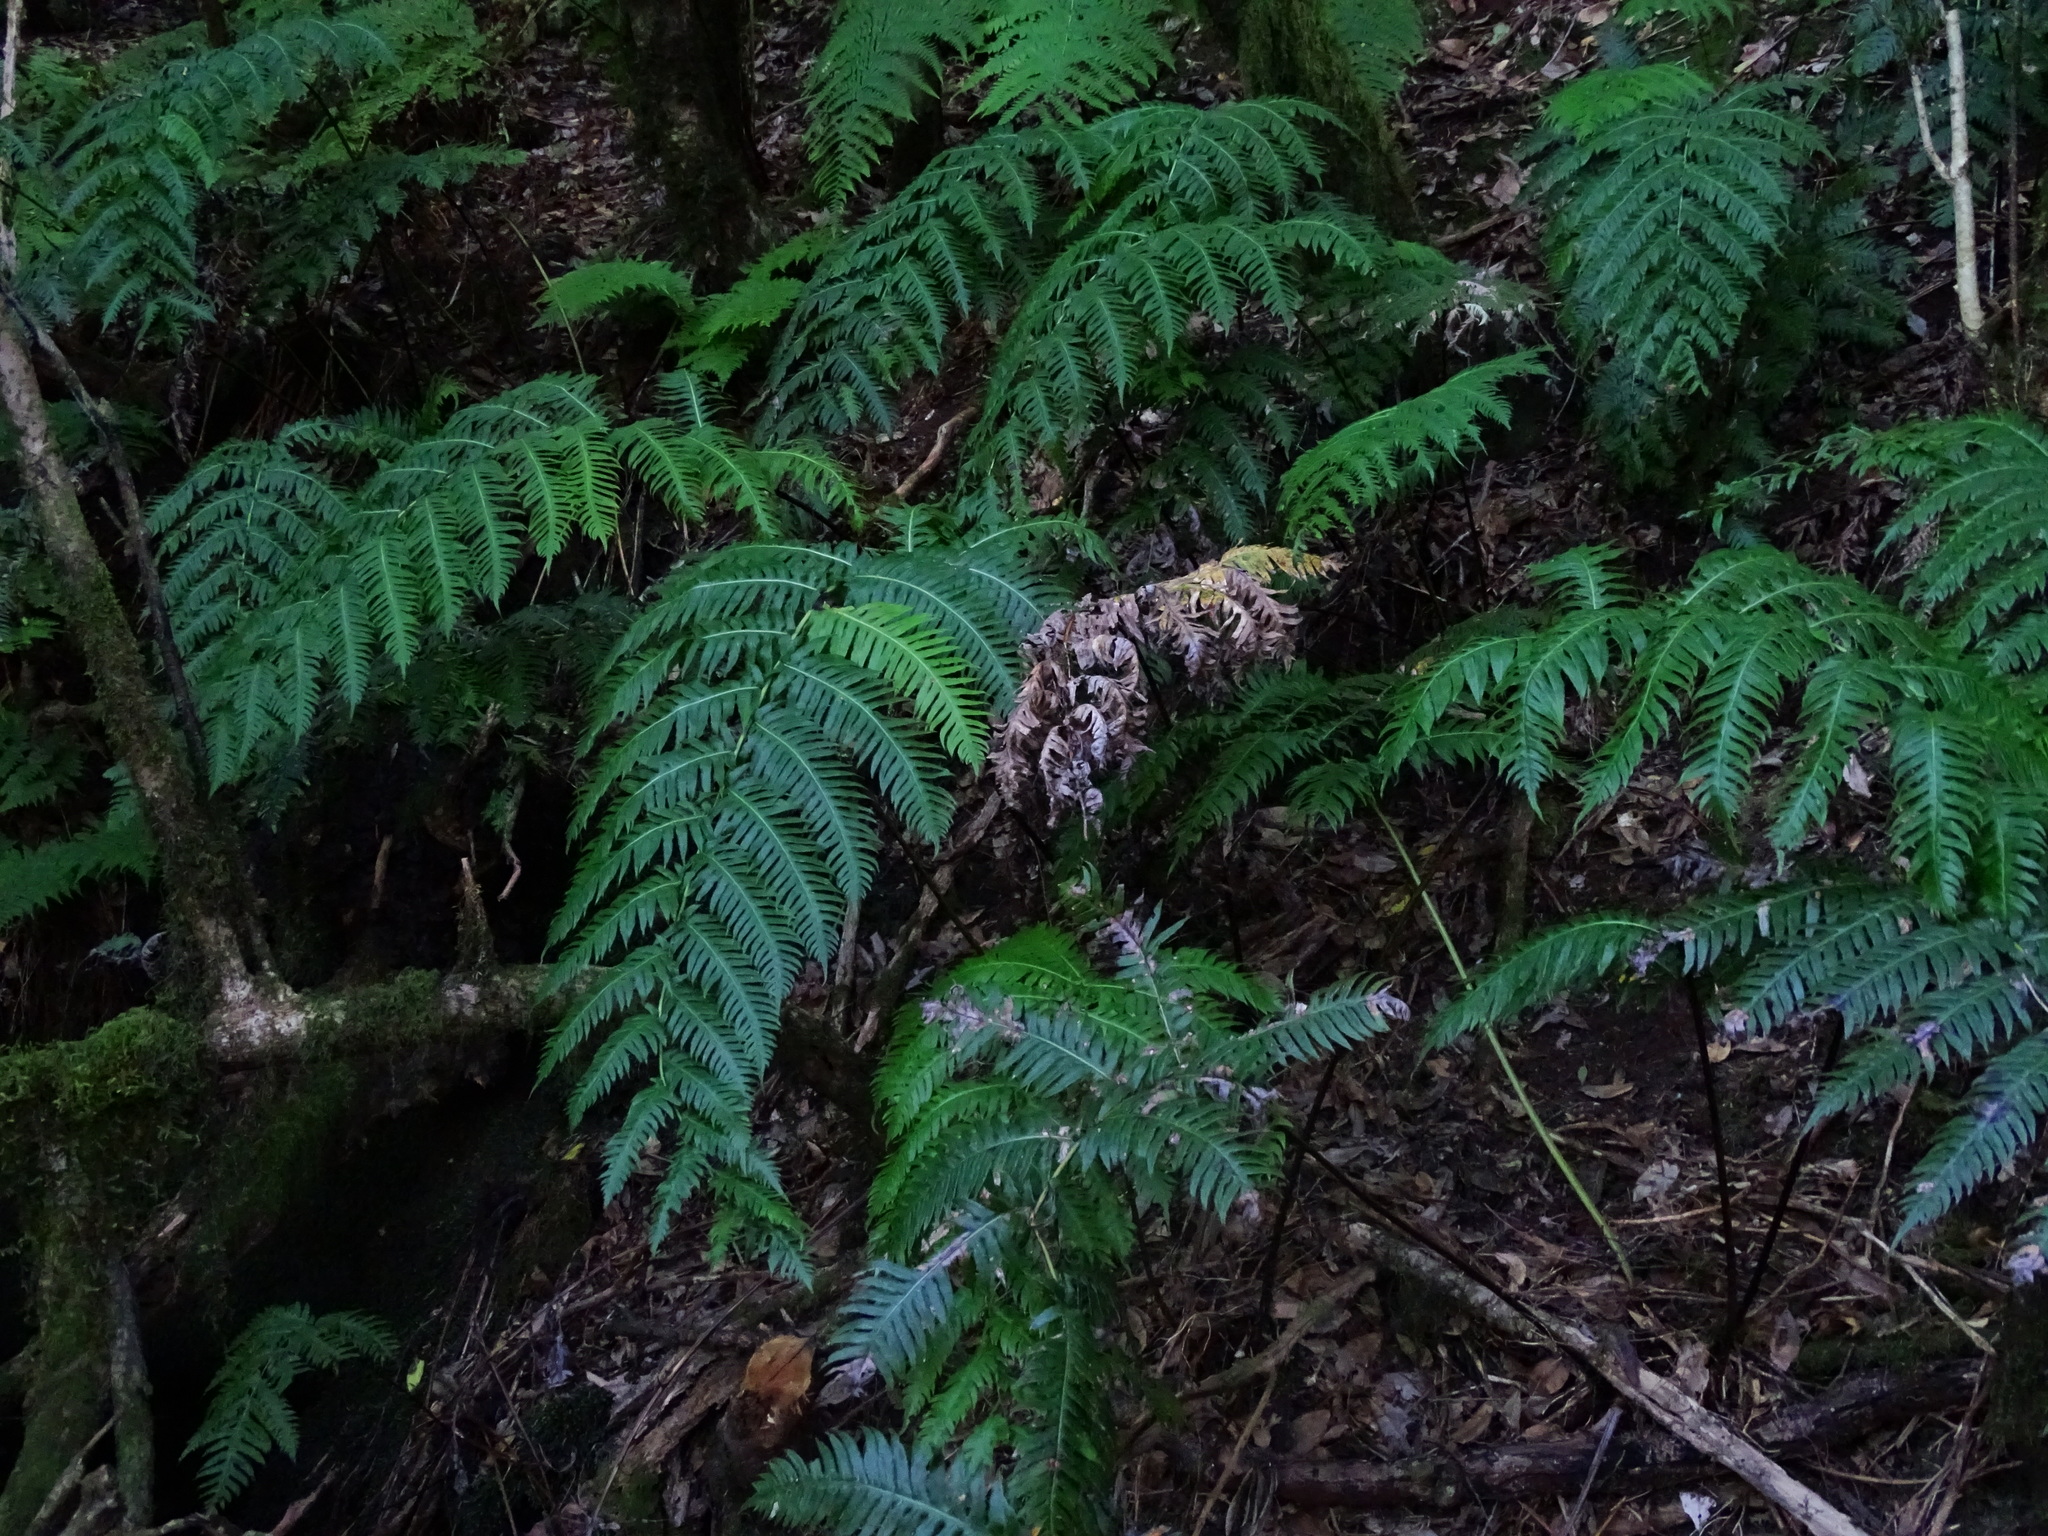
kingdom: Plantae
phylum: Tracheophyta
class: Polypodiopsida
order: Polypodiales
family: Blechnaceae
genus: Woodwardia
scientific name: Woodwardia radicans
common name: Rooting chainfern
